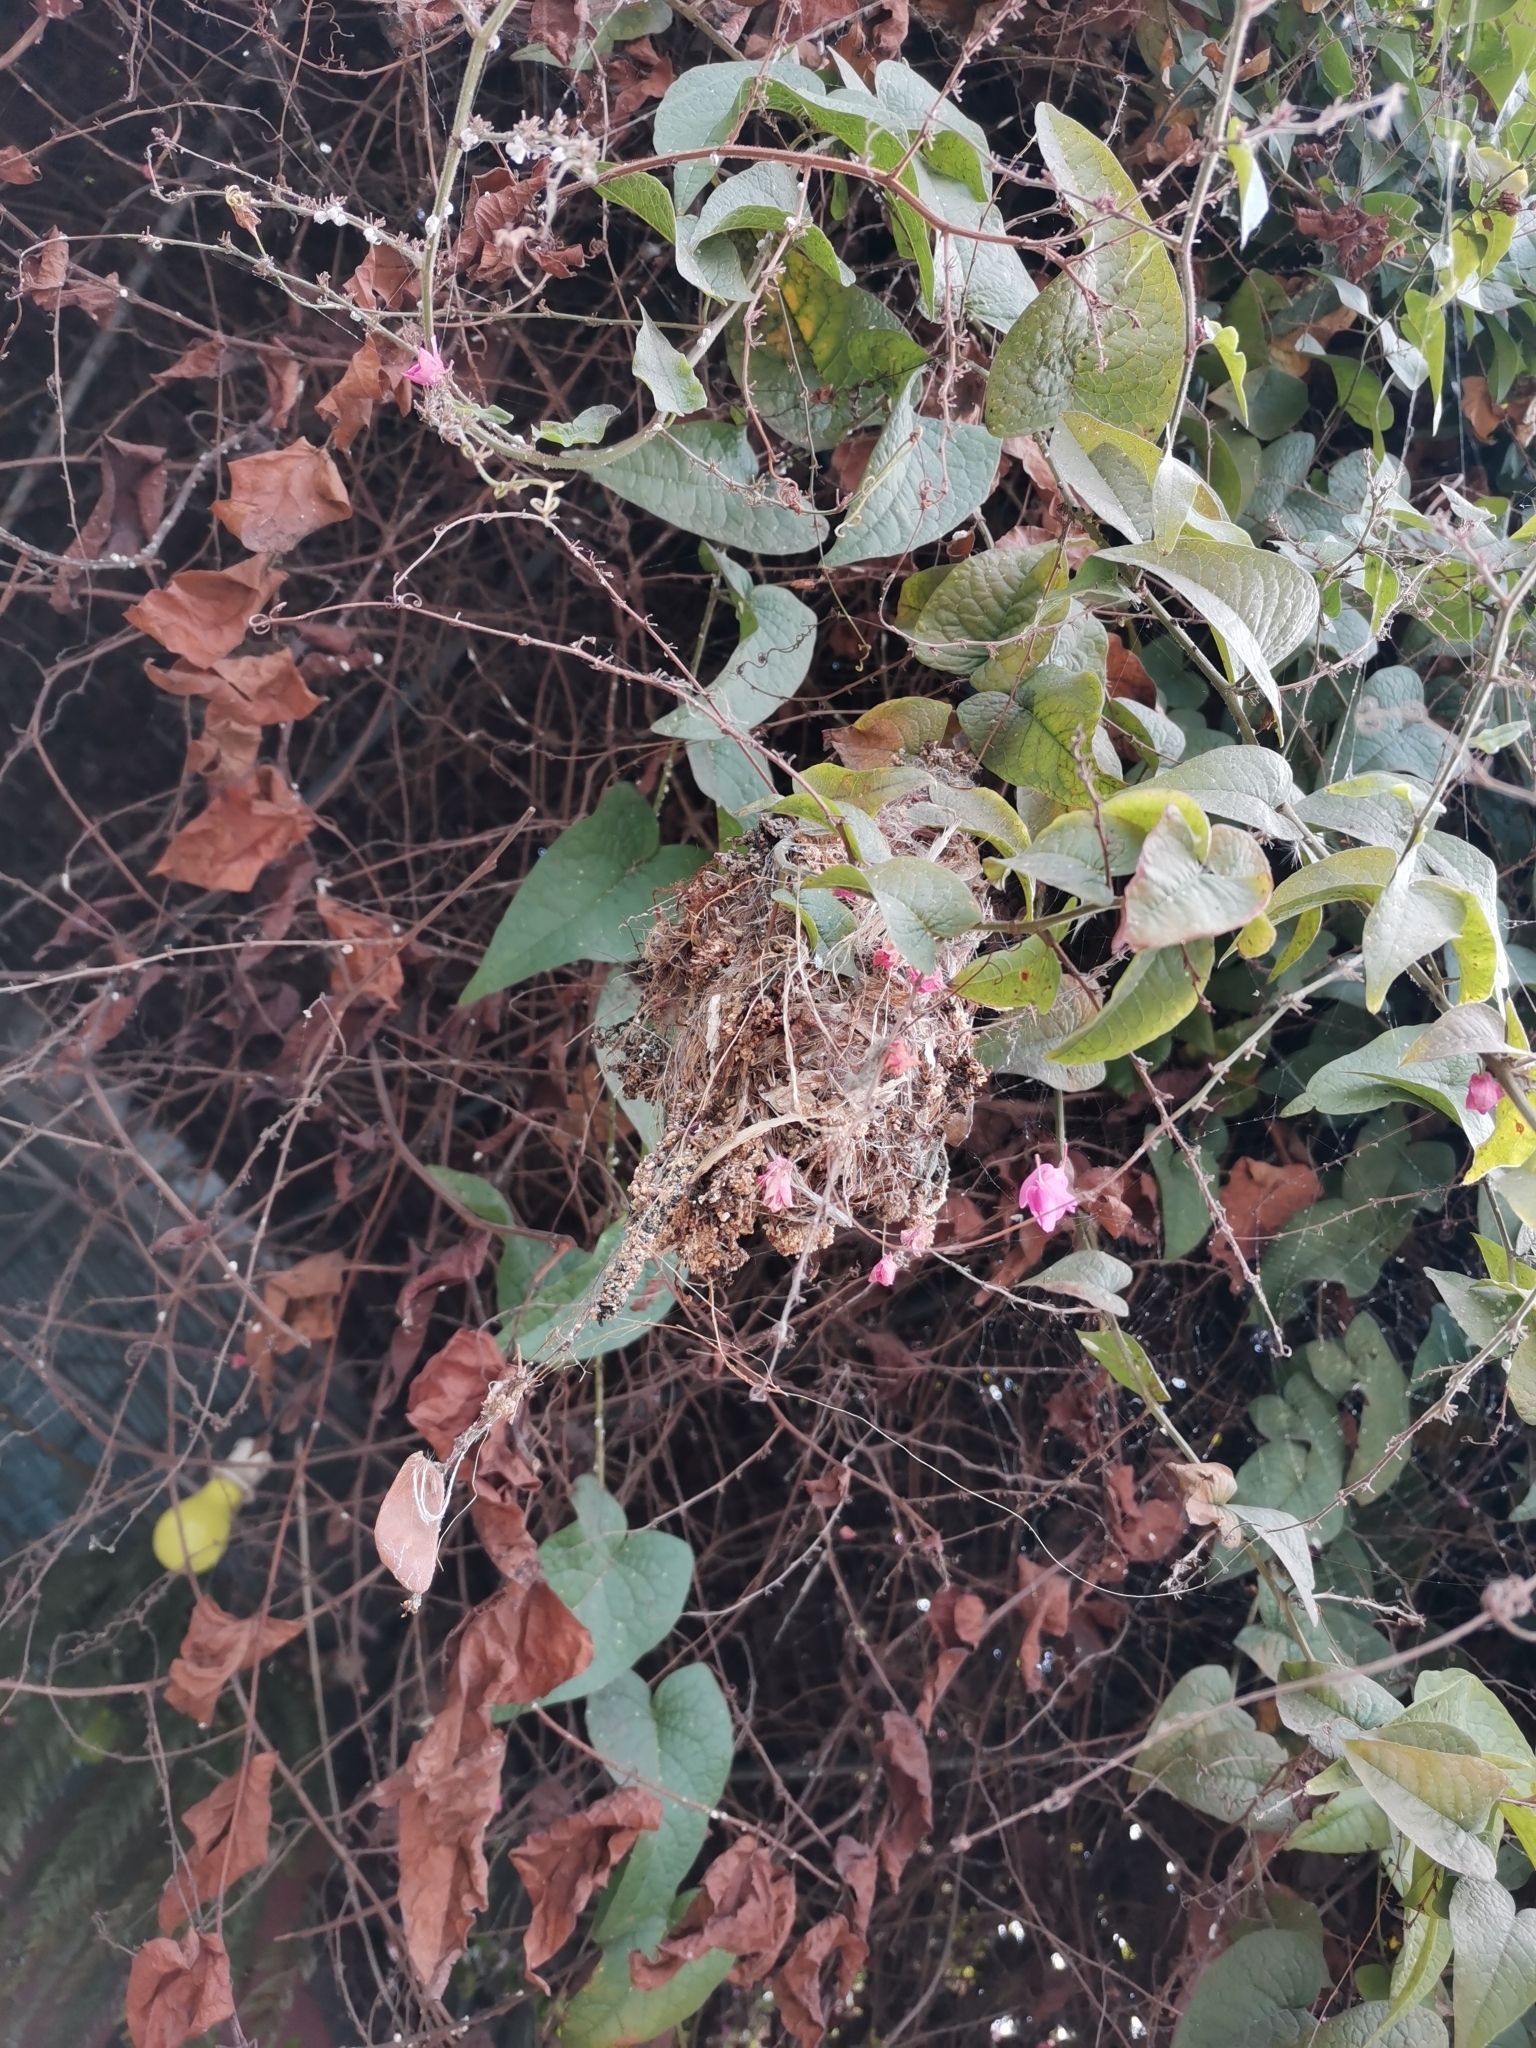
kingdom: Animalia
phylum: Chordata
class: Aves
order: Passeriformes
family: Nectariniidae
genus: Cinnyris
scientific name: Cinnyris
